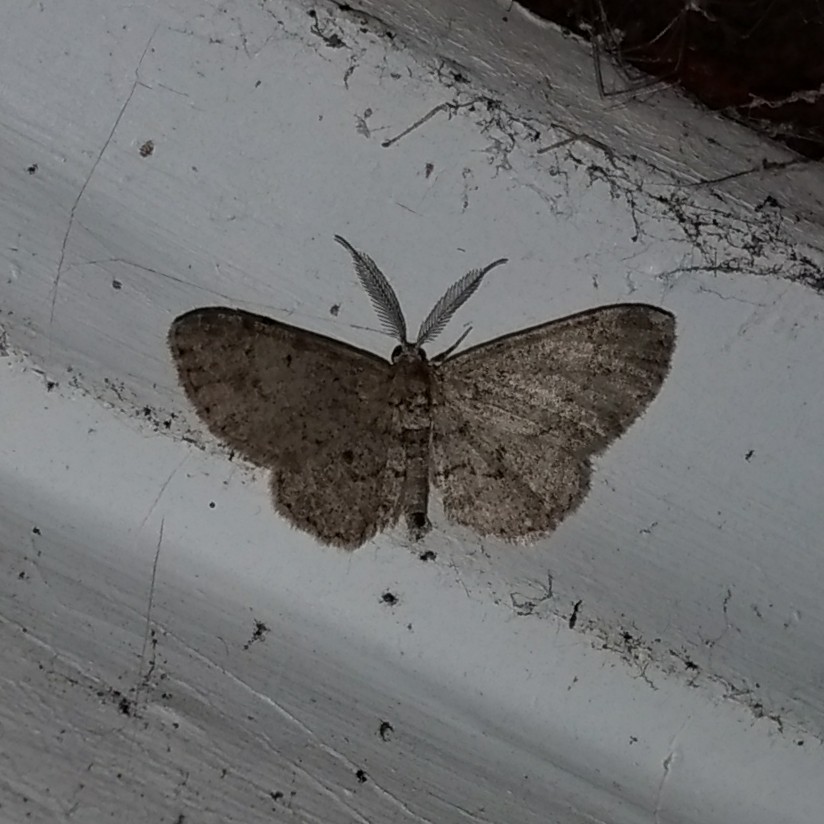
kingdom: Animalia
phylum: Arthropoda
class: Insecta
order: Lepidoptera
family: Geometridae
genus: Glenoides
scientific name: Glenoides texanaria
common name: Texas gray
